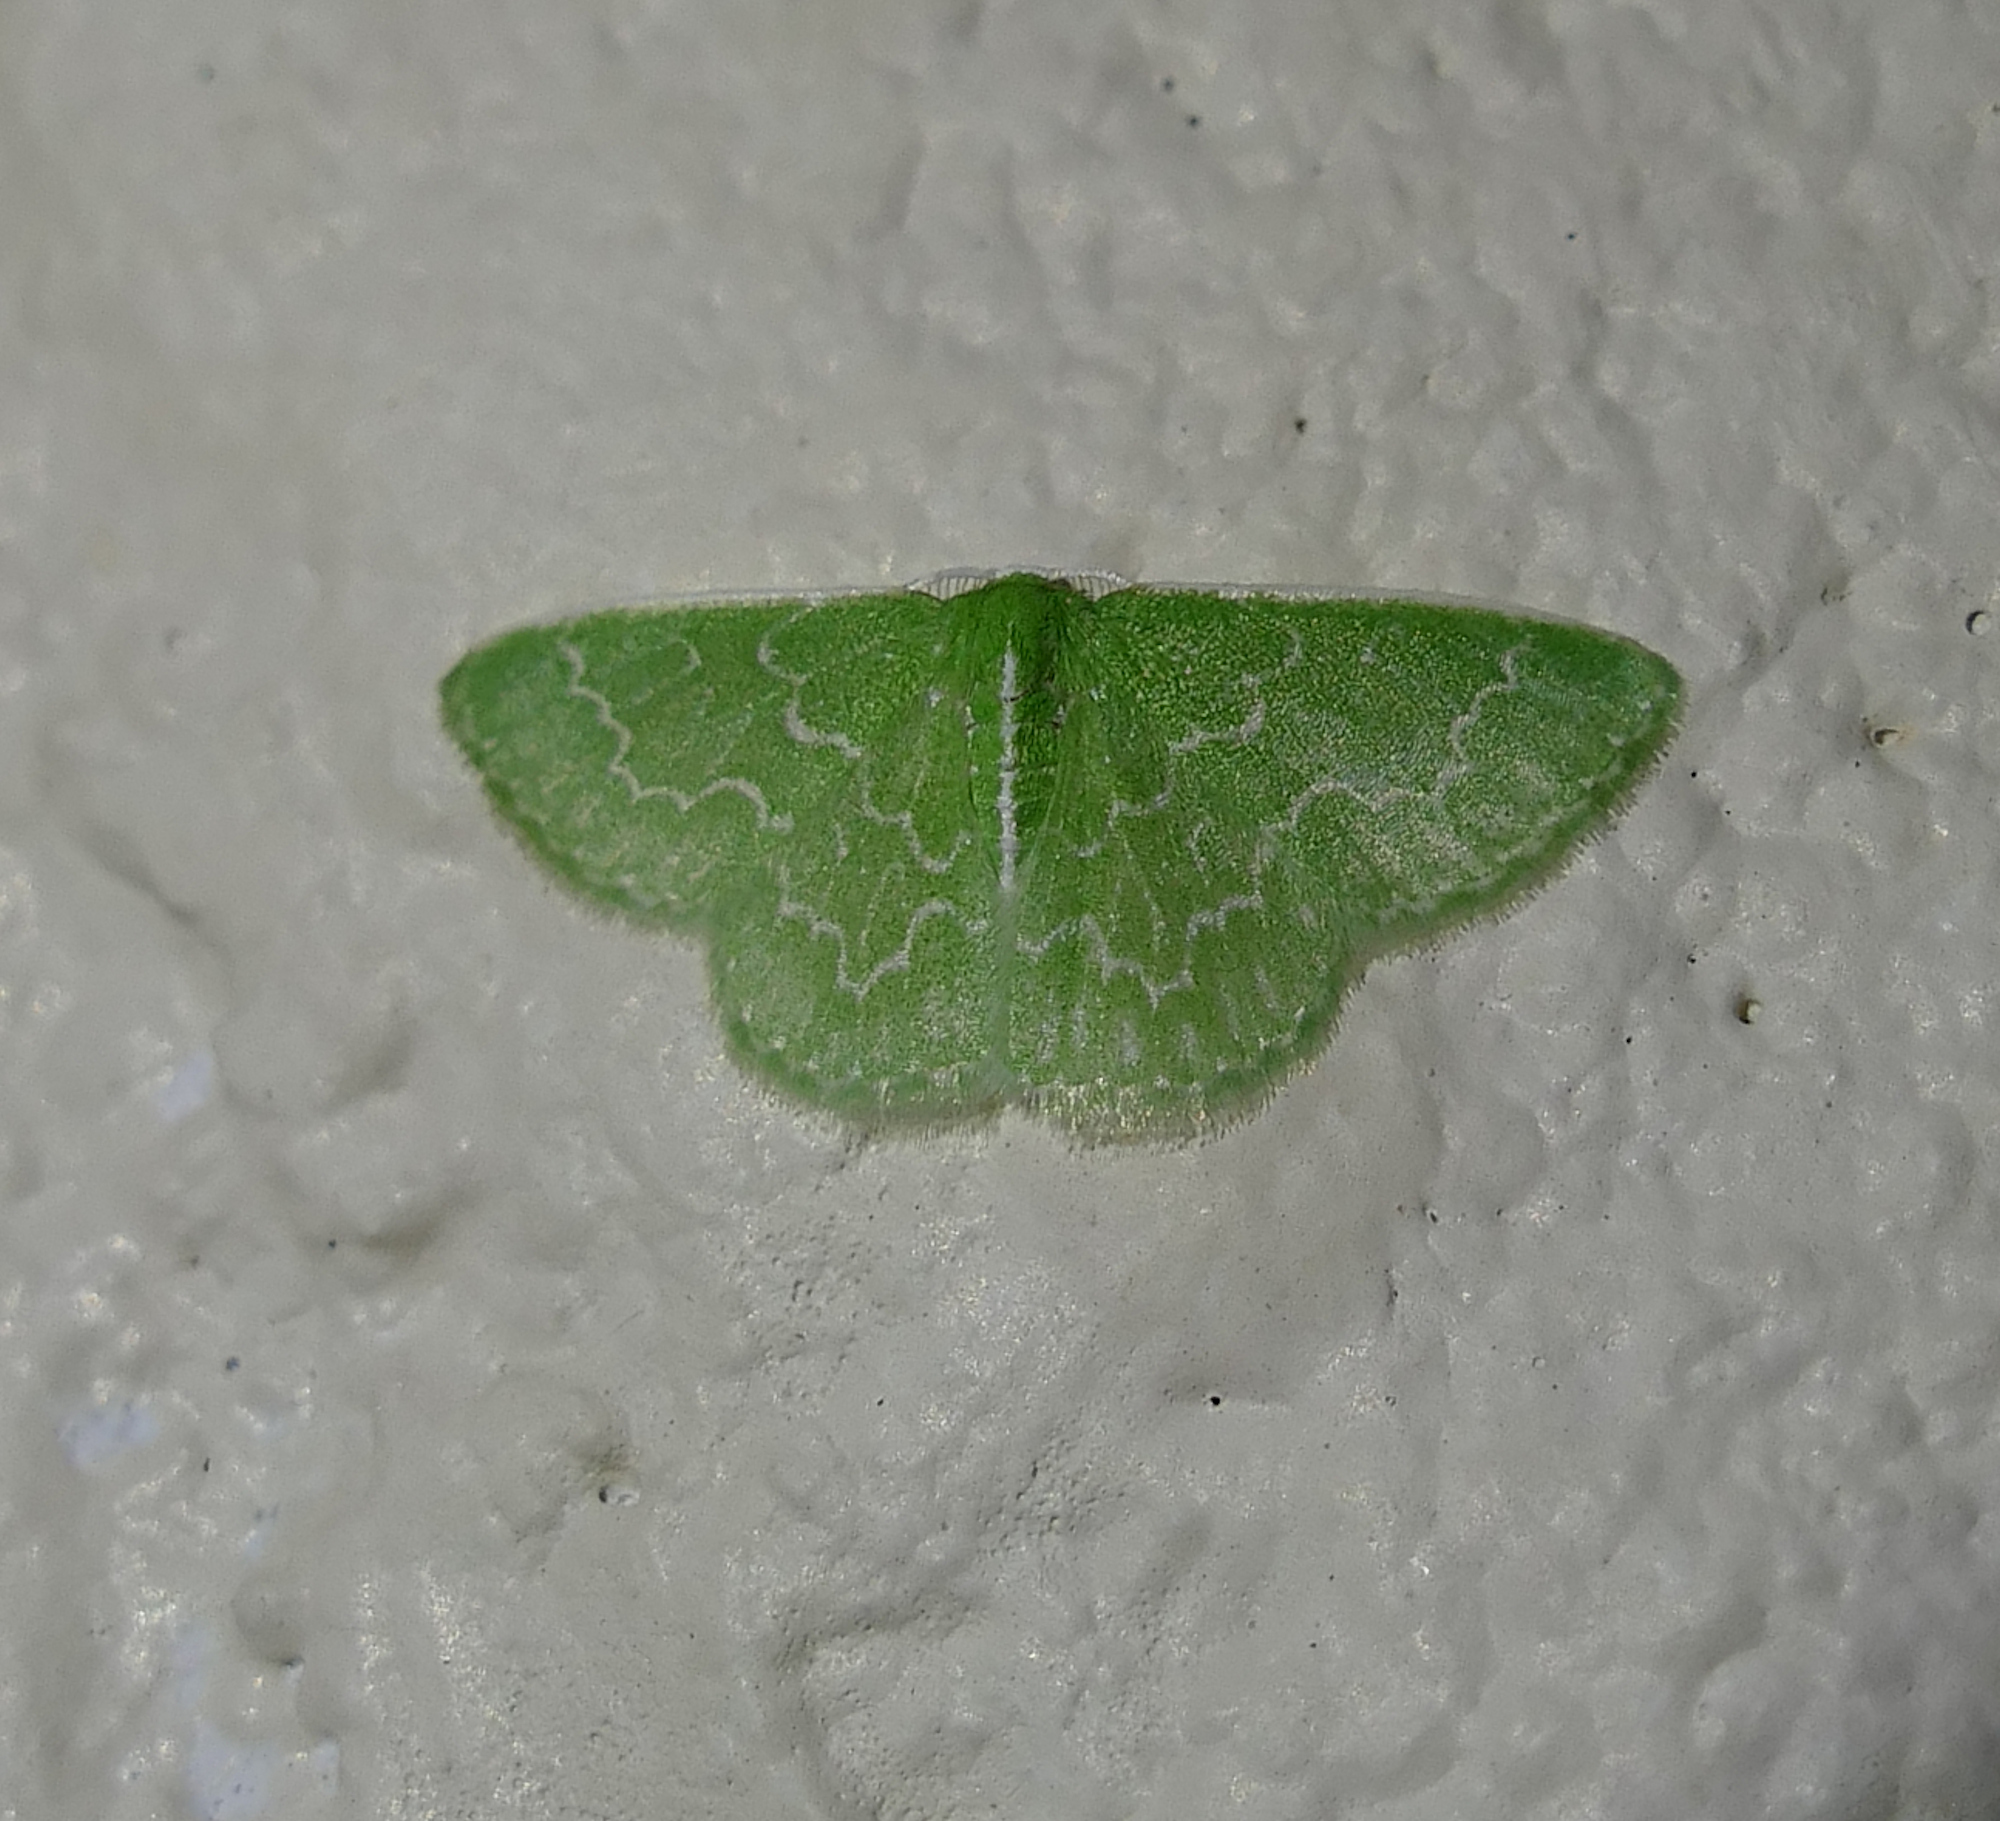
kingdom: Animalia
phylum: Arthropoda
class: Insecta
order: Lepidoptera
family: Geometridae
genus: Synchlora
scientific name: Synchlora frondaria
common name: Southern emerald
